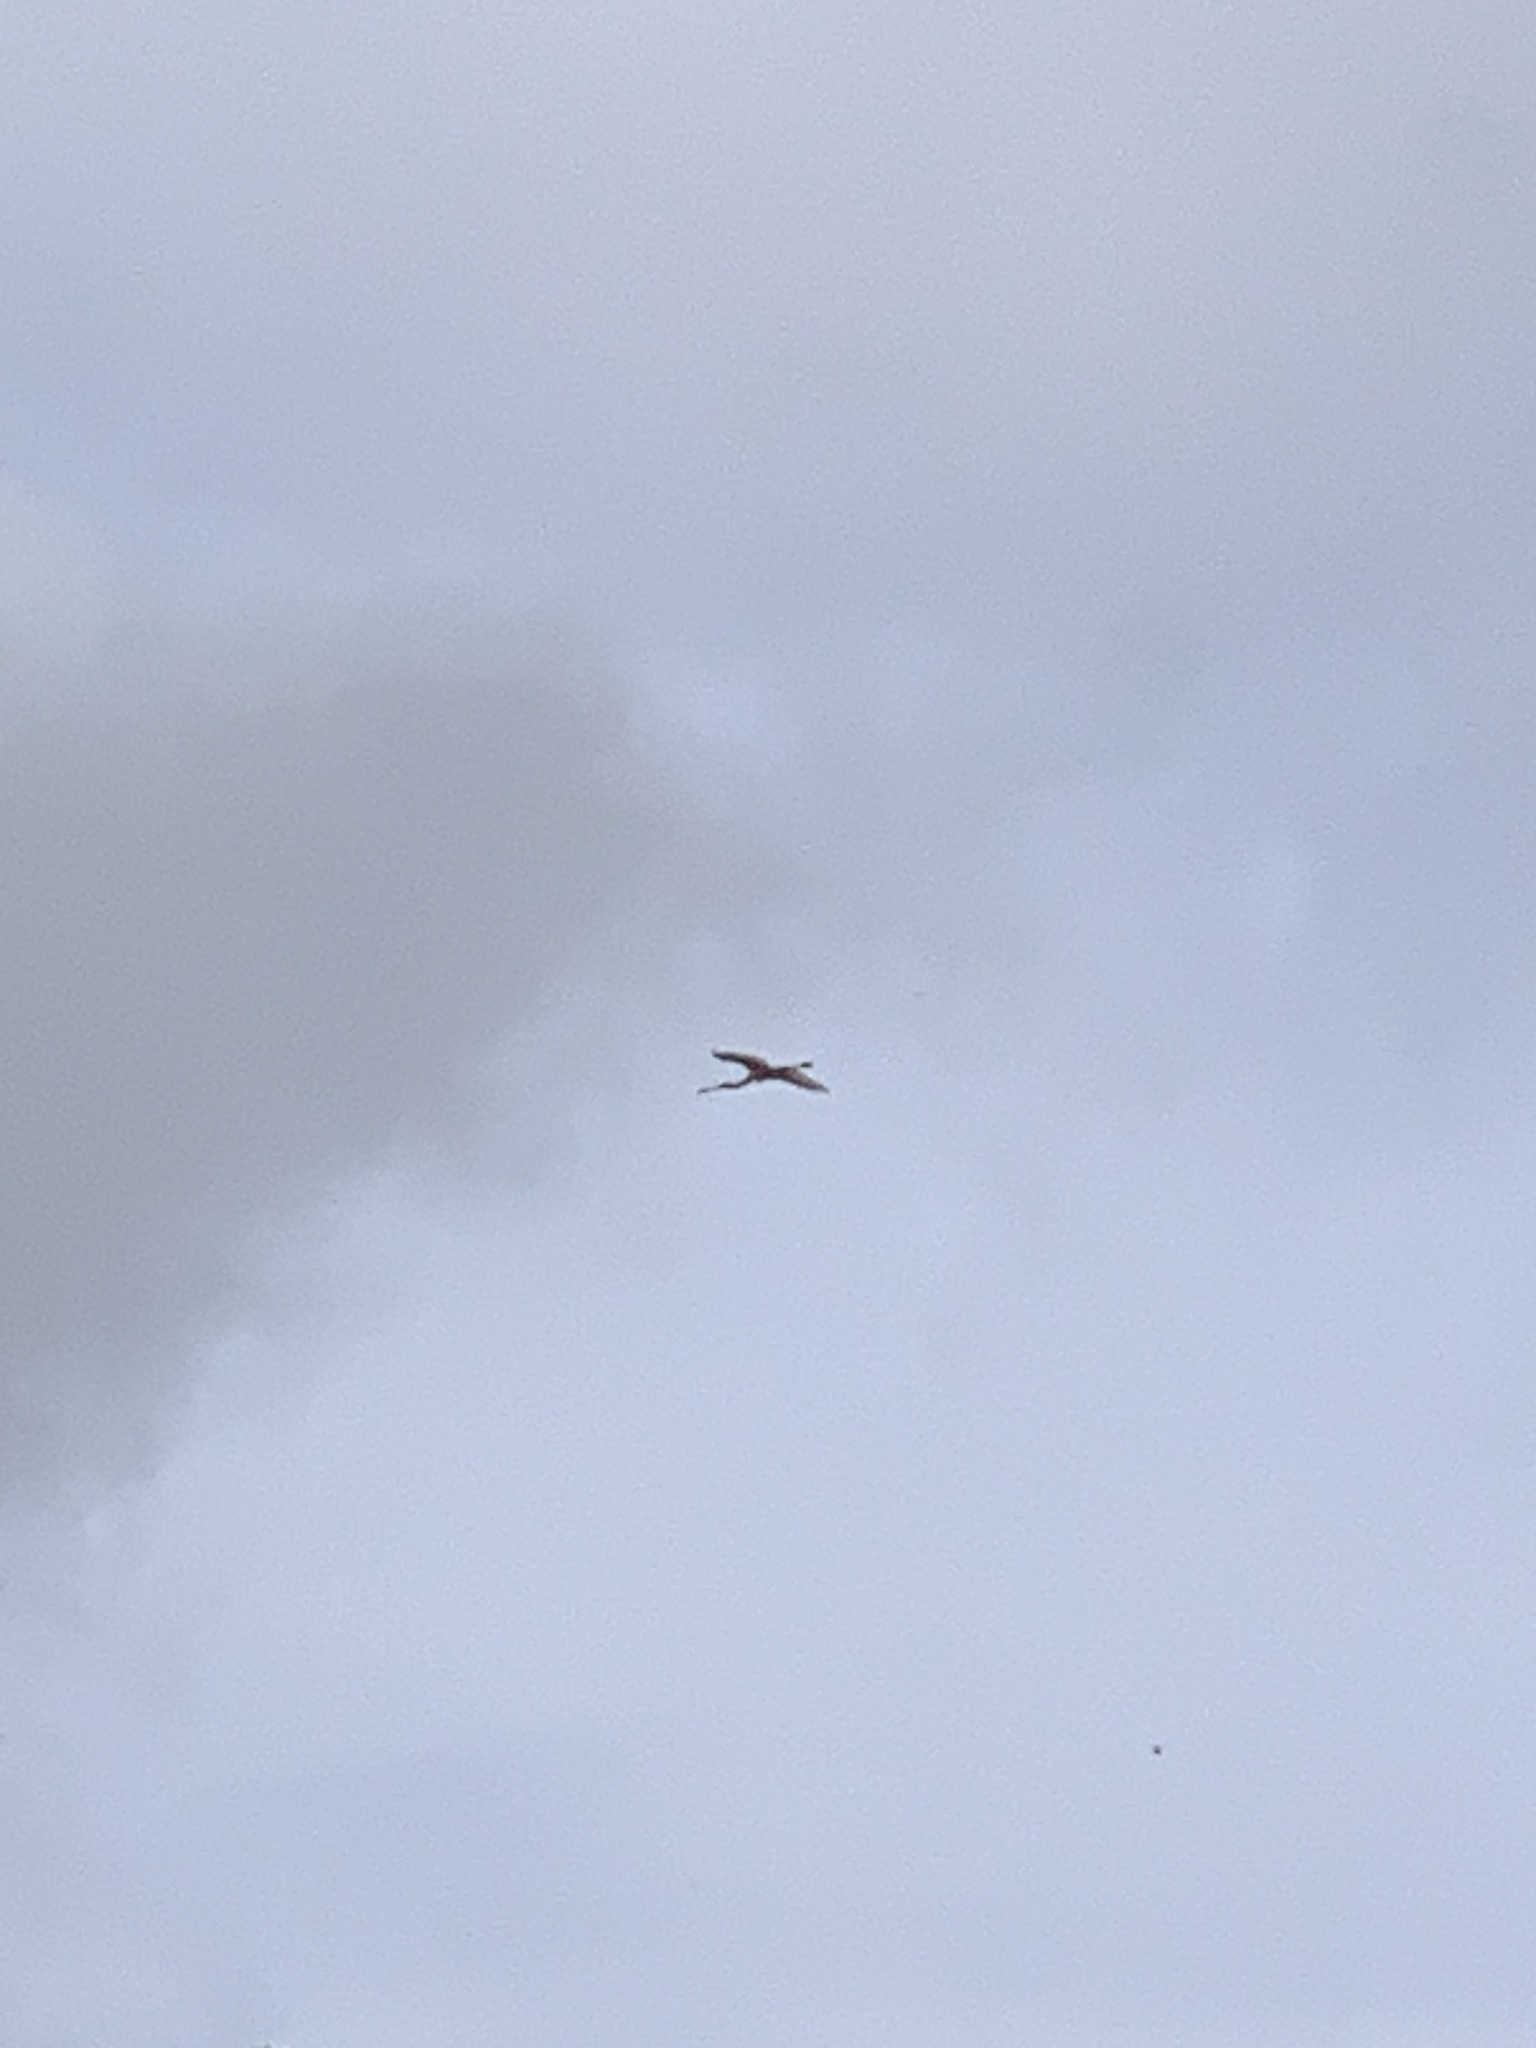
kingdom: Animalia
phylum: Chordata
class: Aves
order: Pelecaniformes
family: Threskiornithidae
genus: Platalea
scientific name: Platalea leucorodia
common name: Eurasian spoonbill
